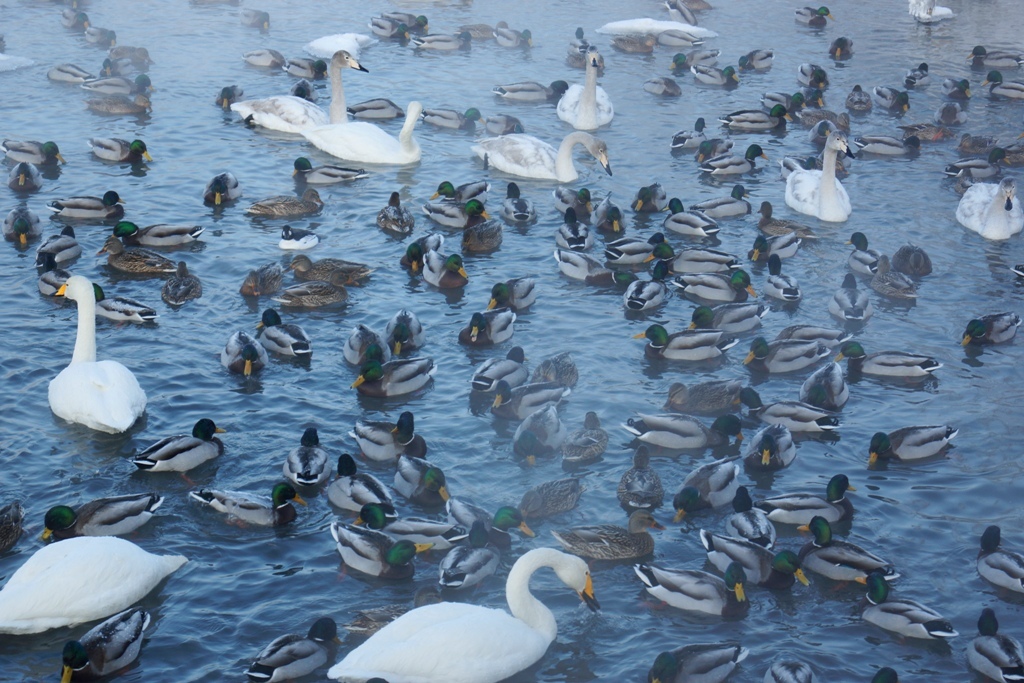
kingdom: Animalia
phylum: Chordata
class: Aves
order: Anseriformes
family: Anatidae
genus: Anas
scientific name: Anas platyrhynchos
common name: Mallard
